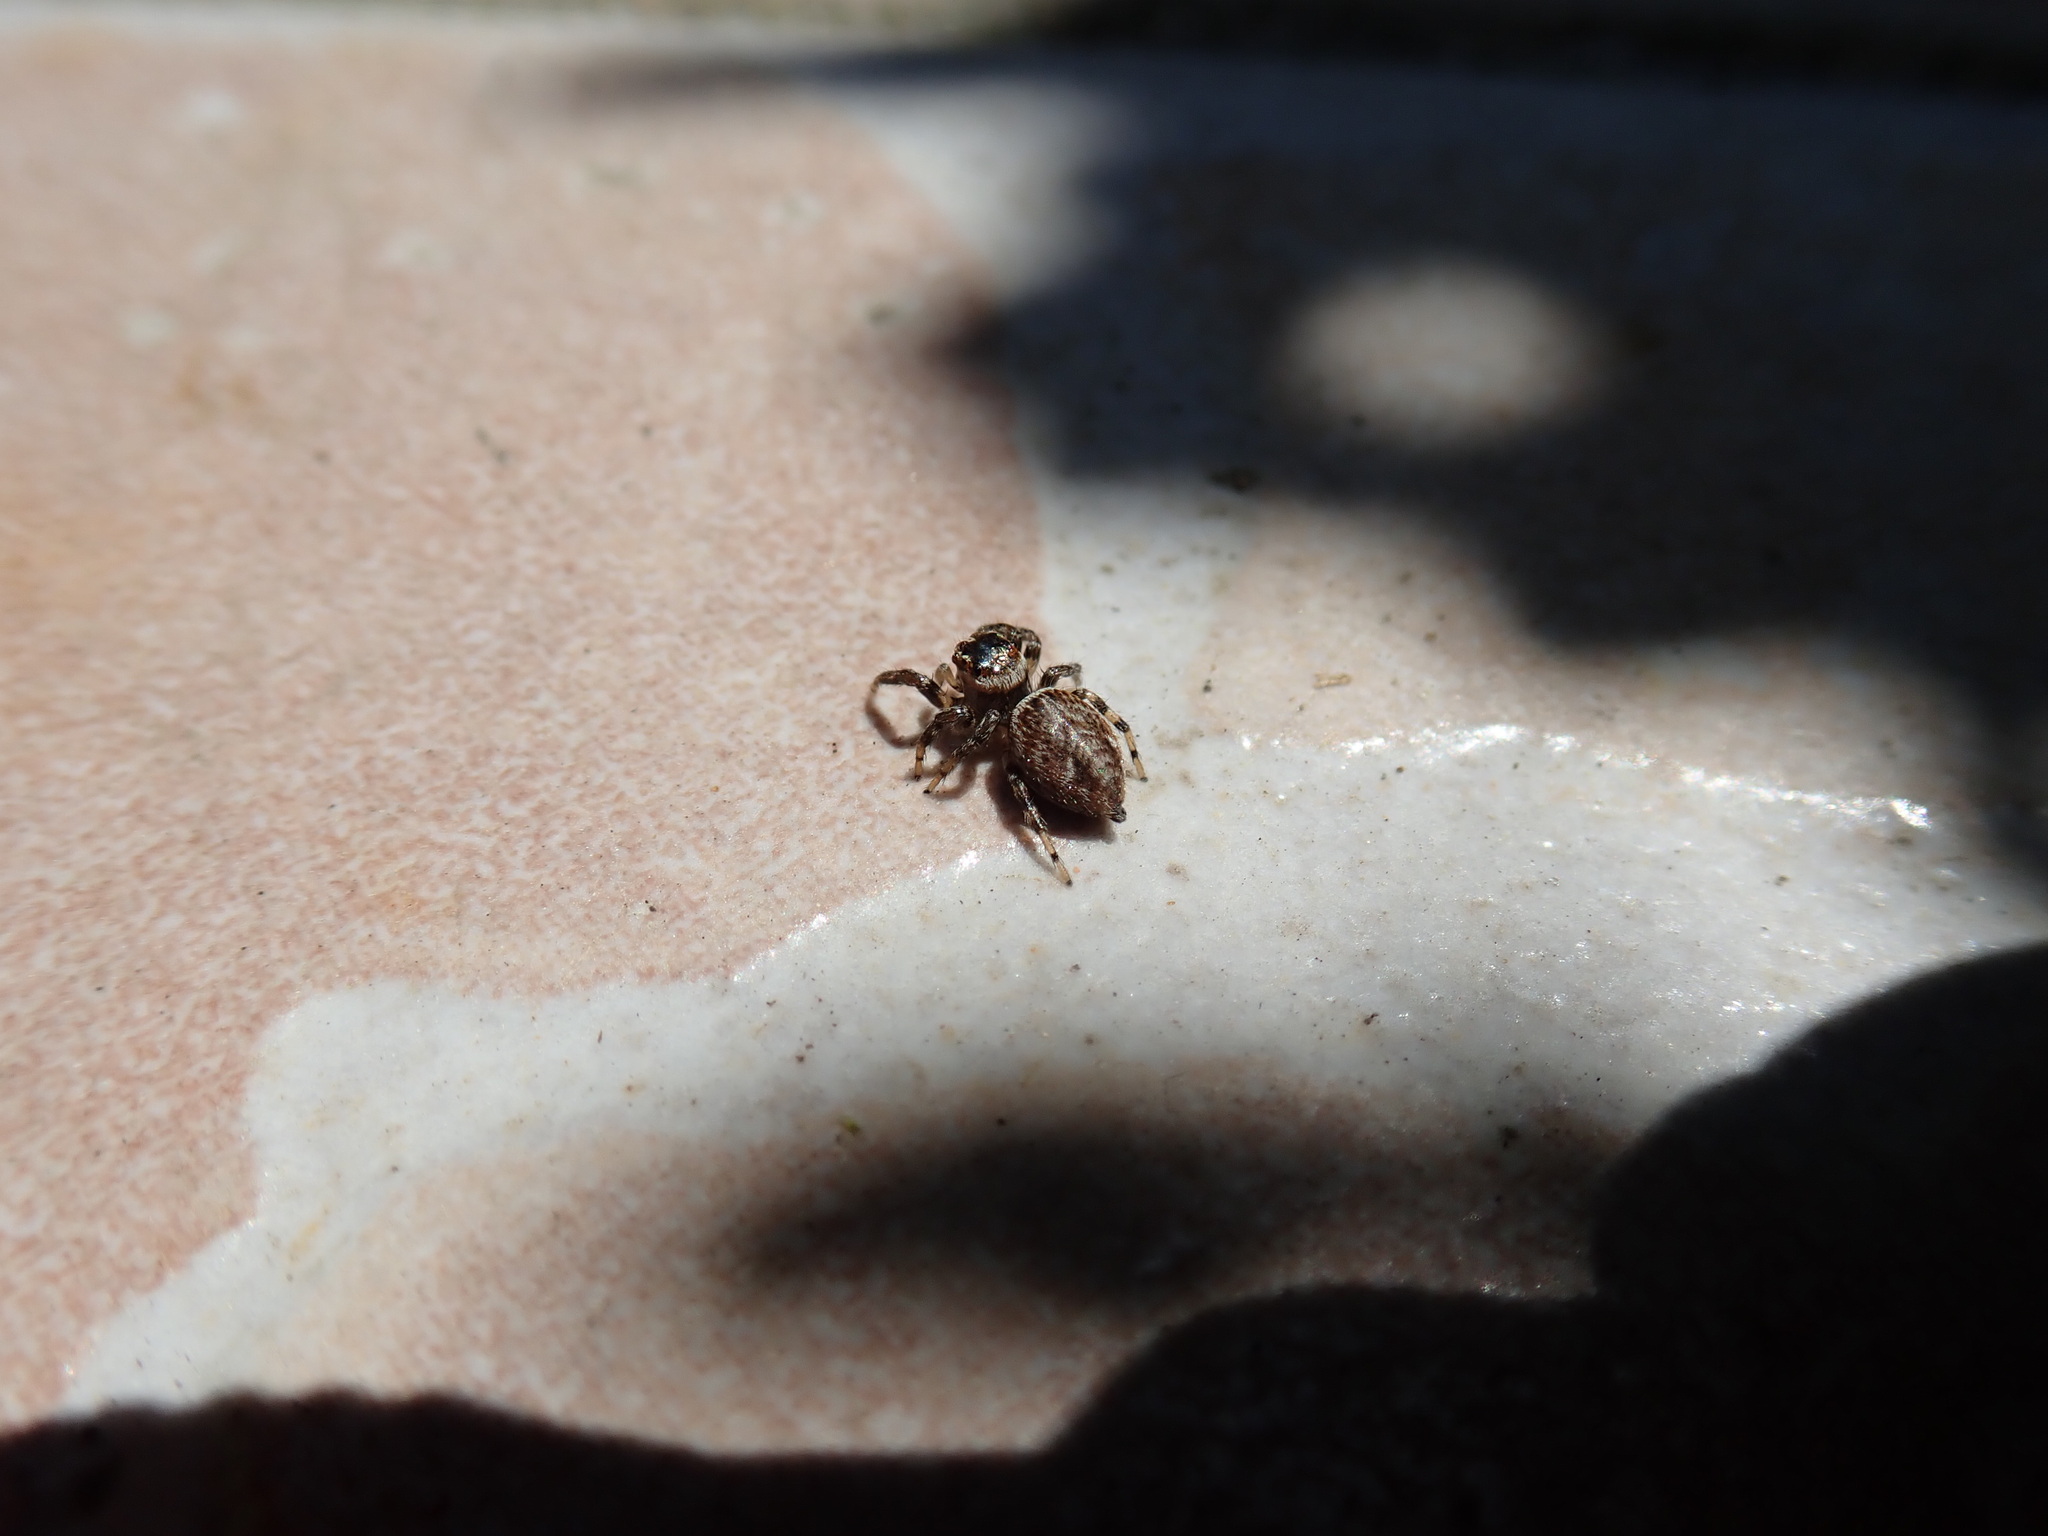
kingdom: Animalia
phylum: Arthropoda
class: Arachnida
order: Araneae
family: Salticidae
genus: Evarcha
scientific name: Evarcha jucunda
